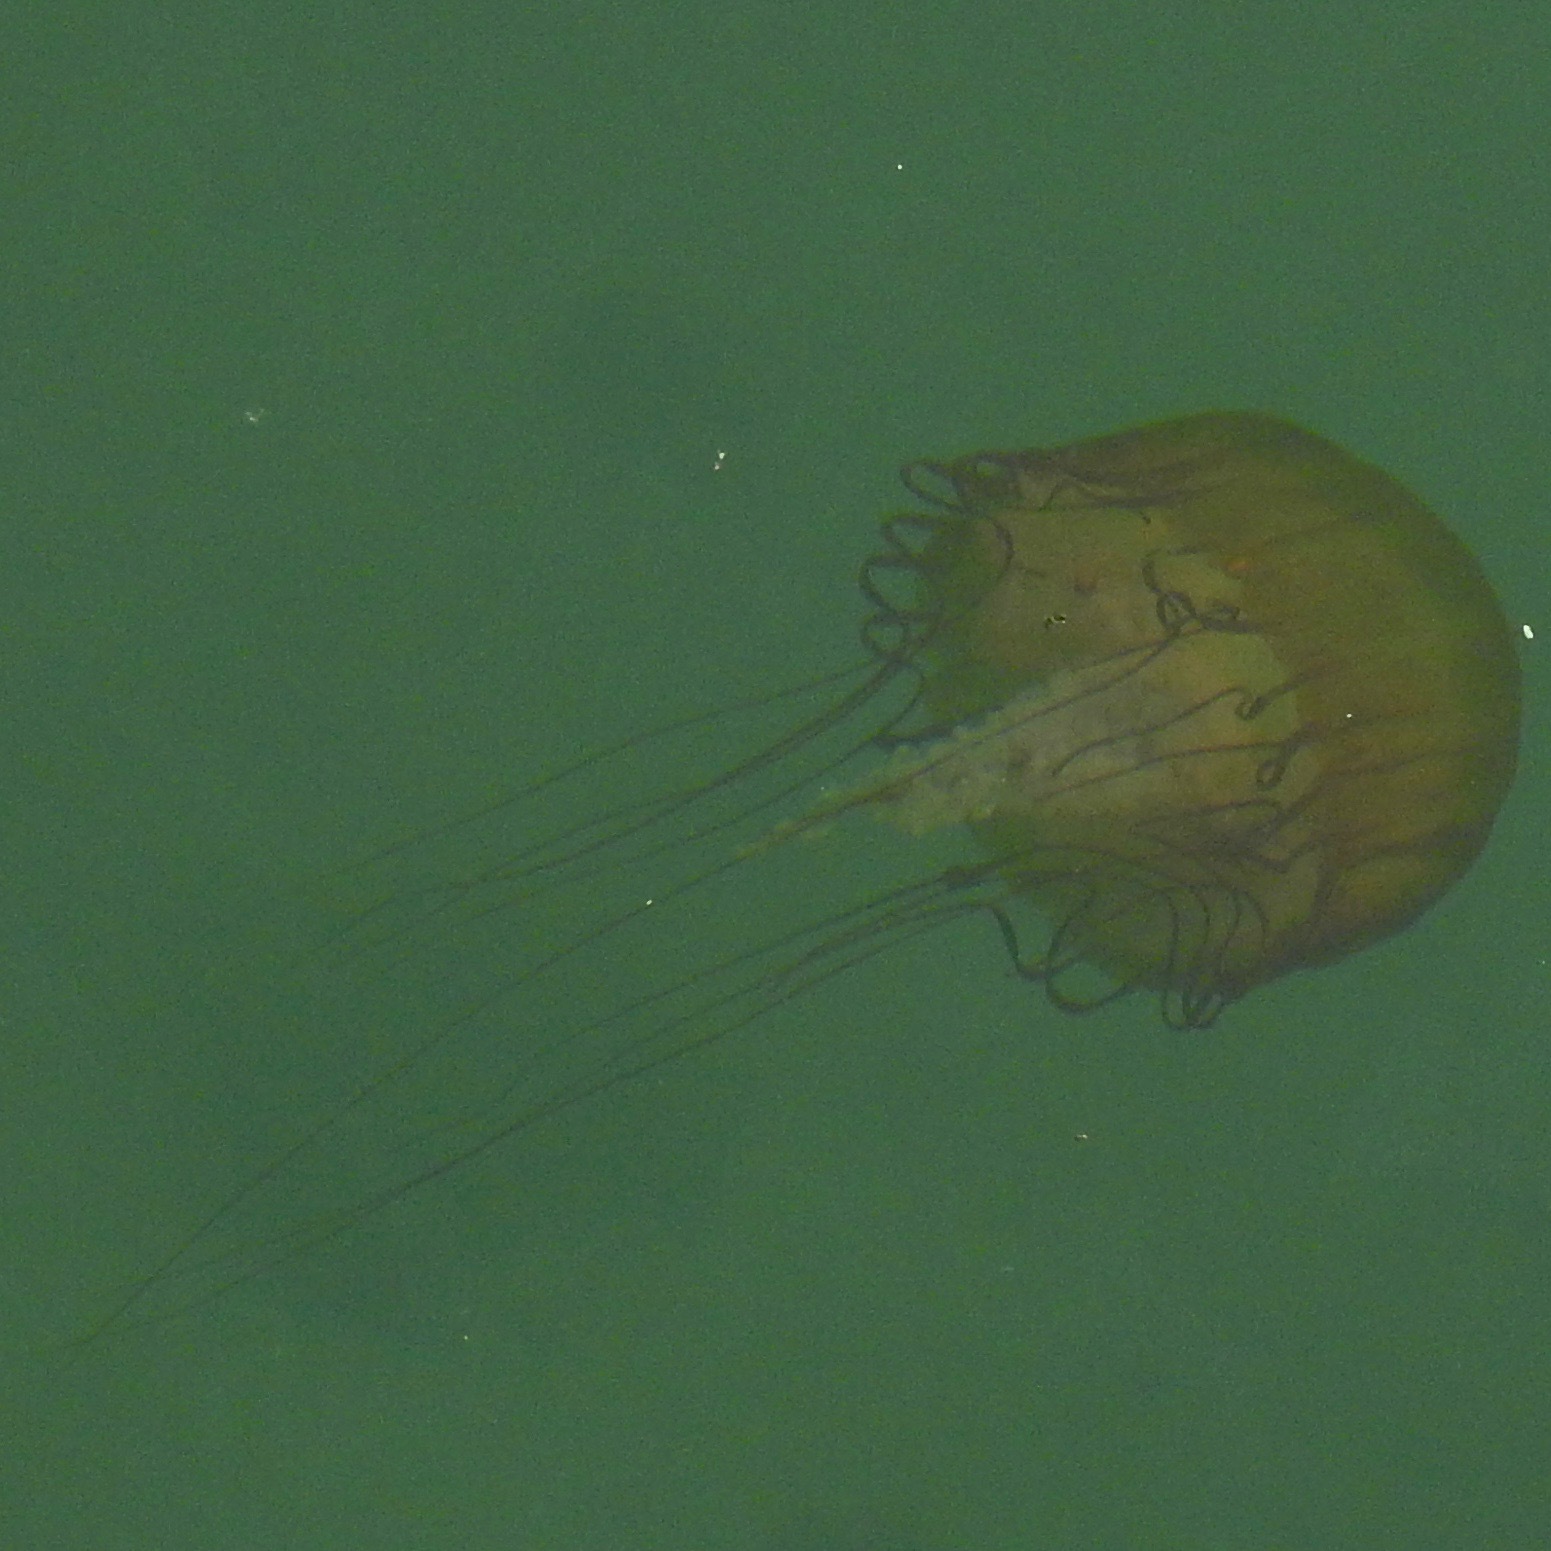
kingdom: Animalia
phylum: Cnidaria
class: Scyphozoa
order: Semaeostomeae
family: Pelagiidae
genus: Chrysaora
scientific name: Chrysaora fuscescens
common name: Sea nettle
